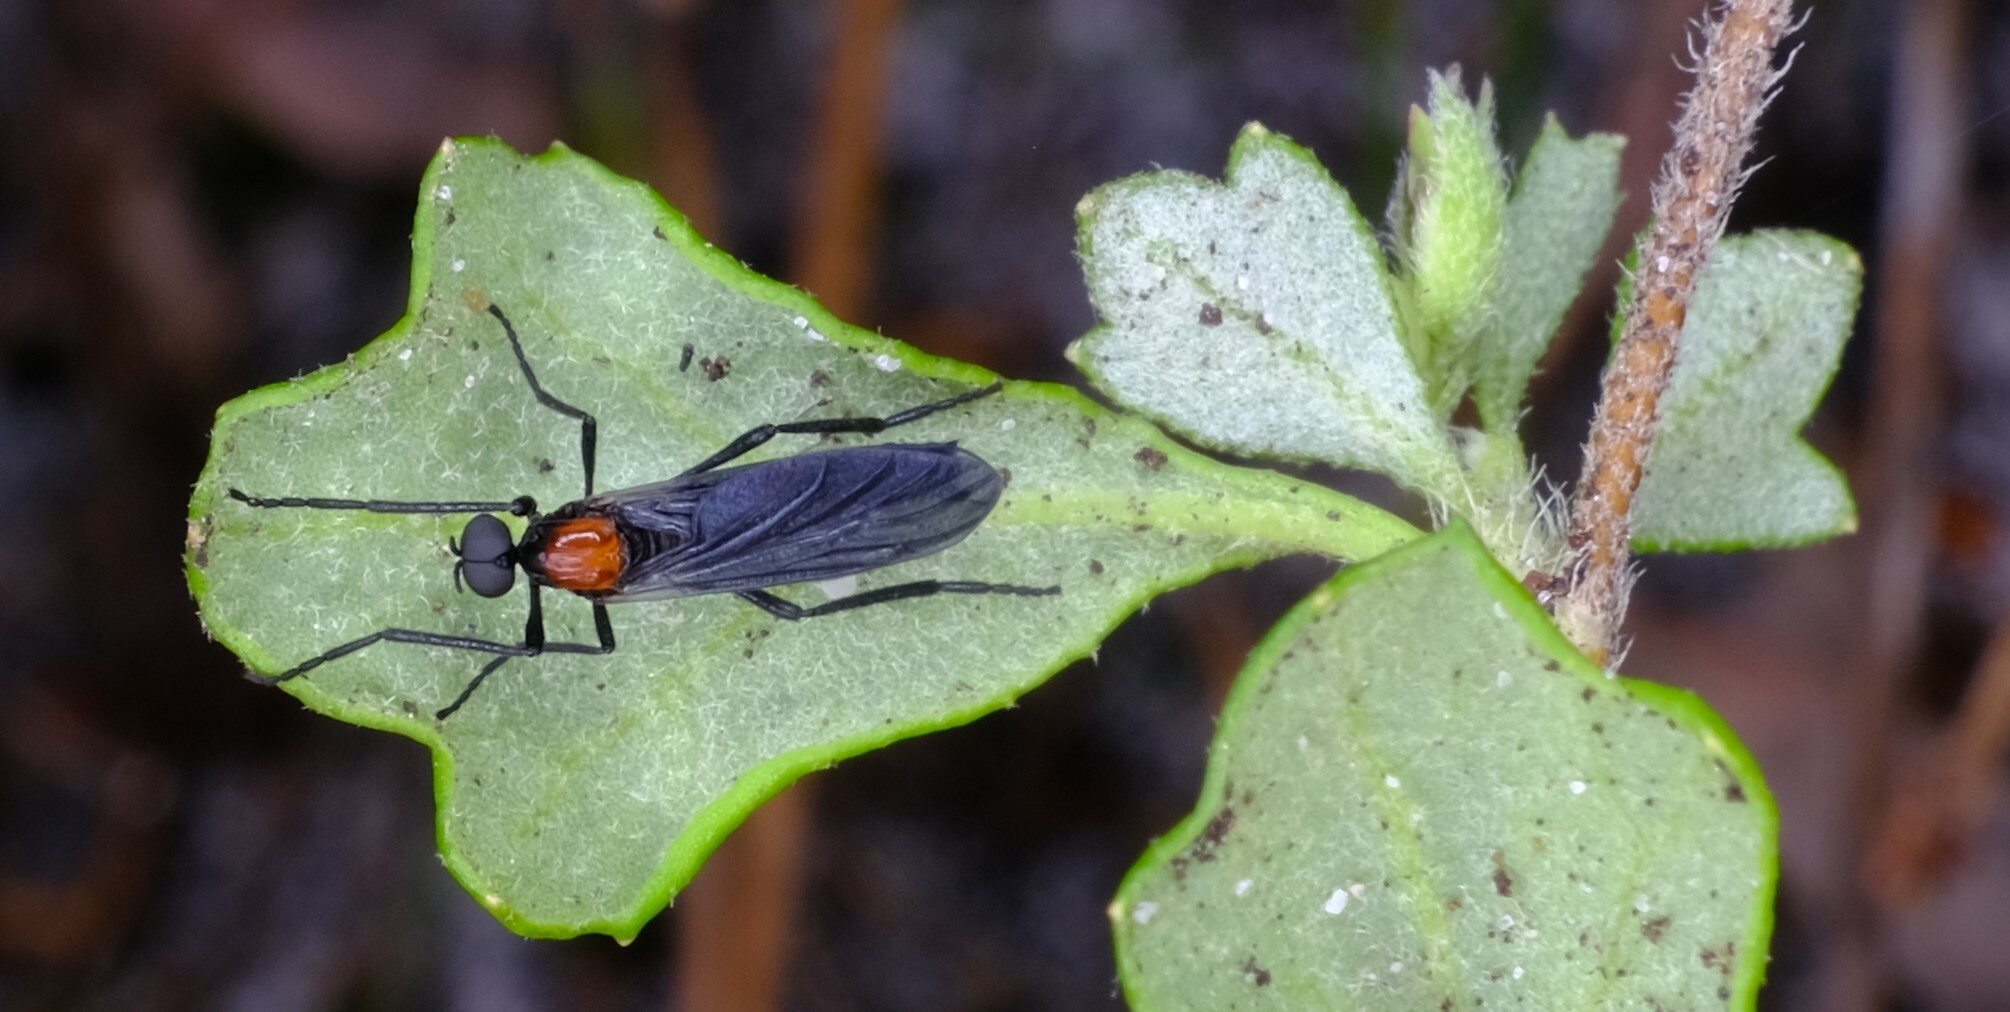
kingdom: Animalia
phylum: Arthropoda
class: Insecta
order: Diptera
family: Bibionidae
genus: Plecia
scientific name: Plecia dimidiata
